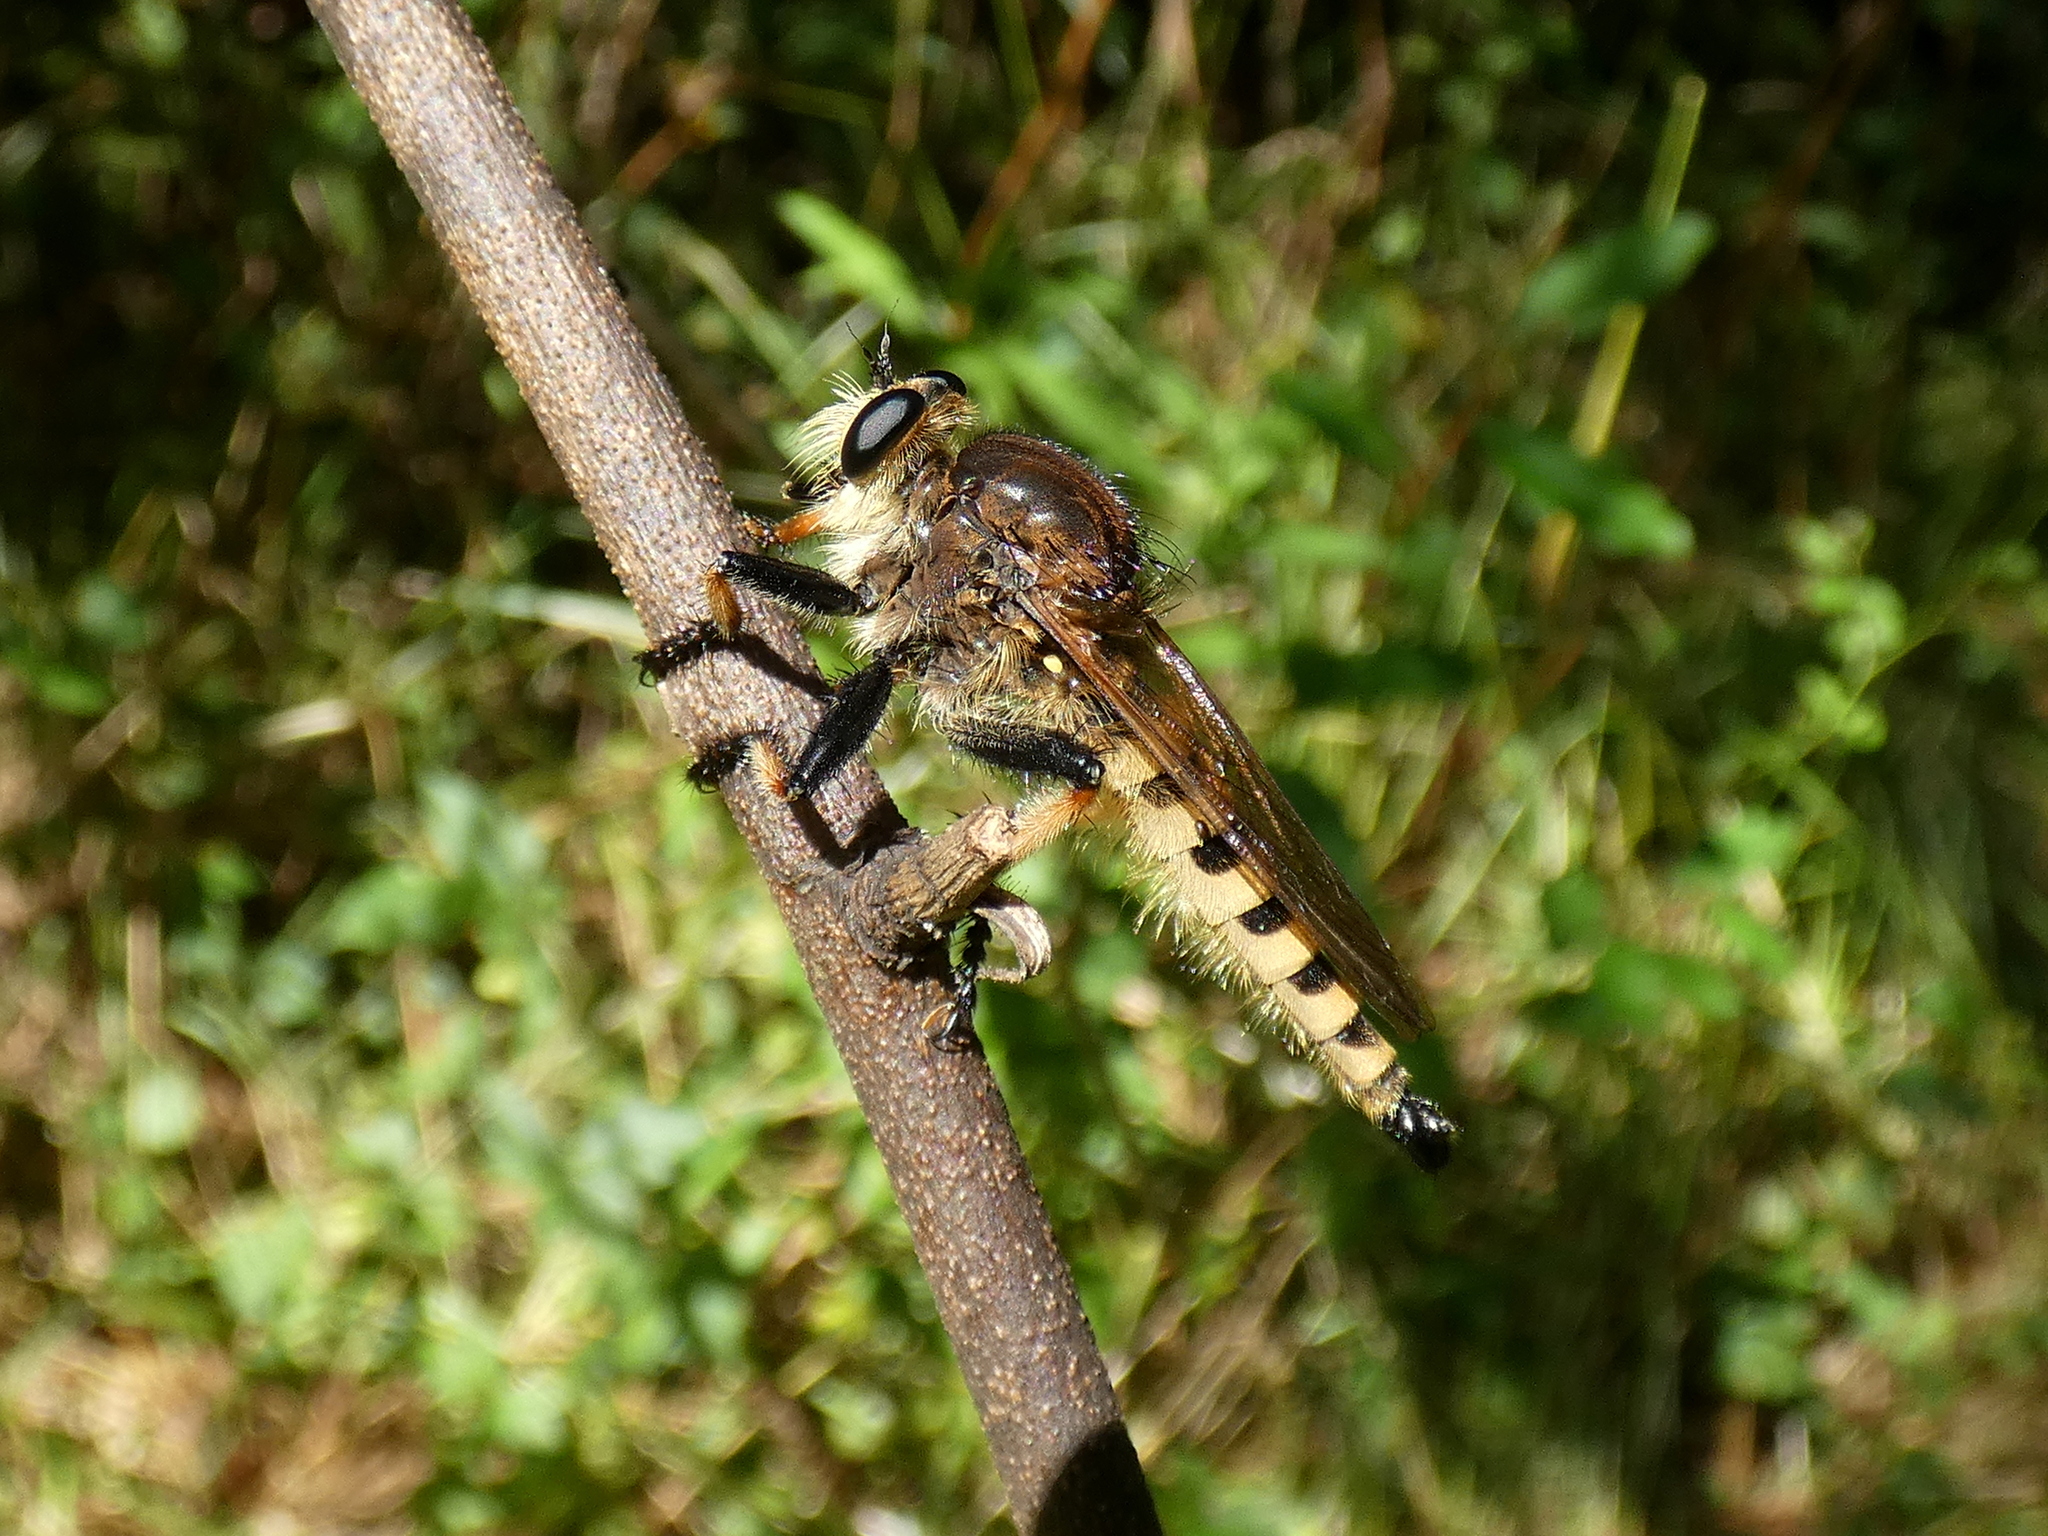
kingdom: Animalia
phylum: Arthropoda
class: Insecta
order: Diptera
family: Asilidae
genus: Promachus
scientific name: Promachus rufipes
